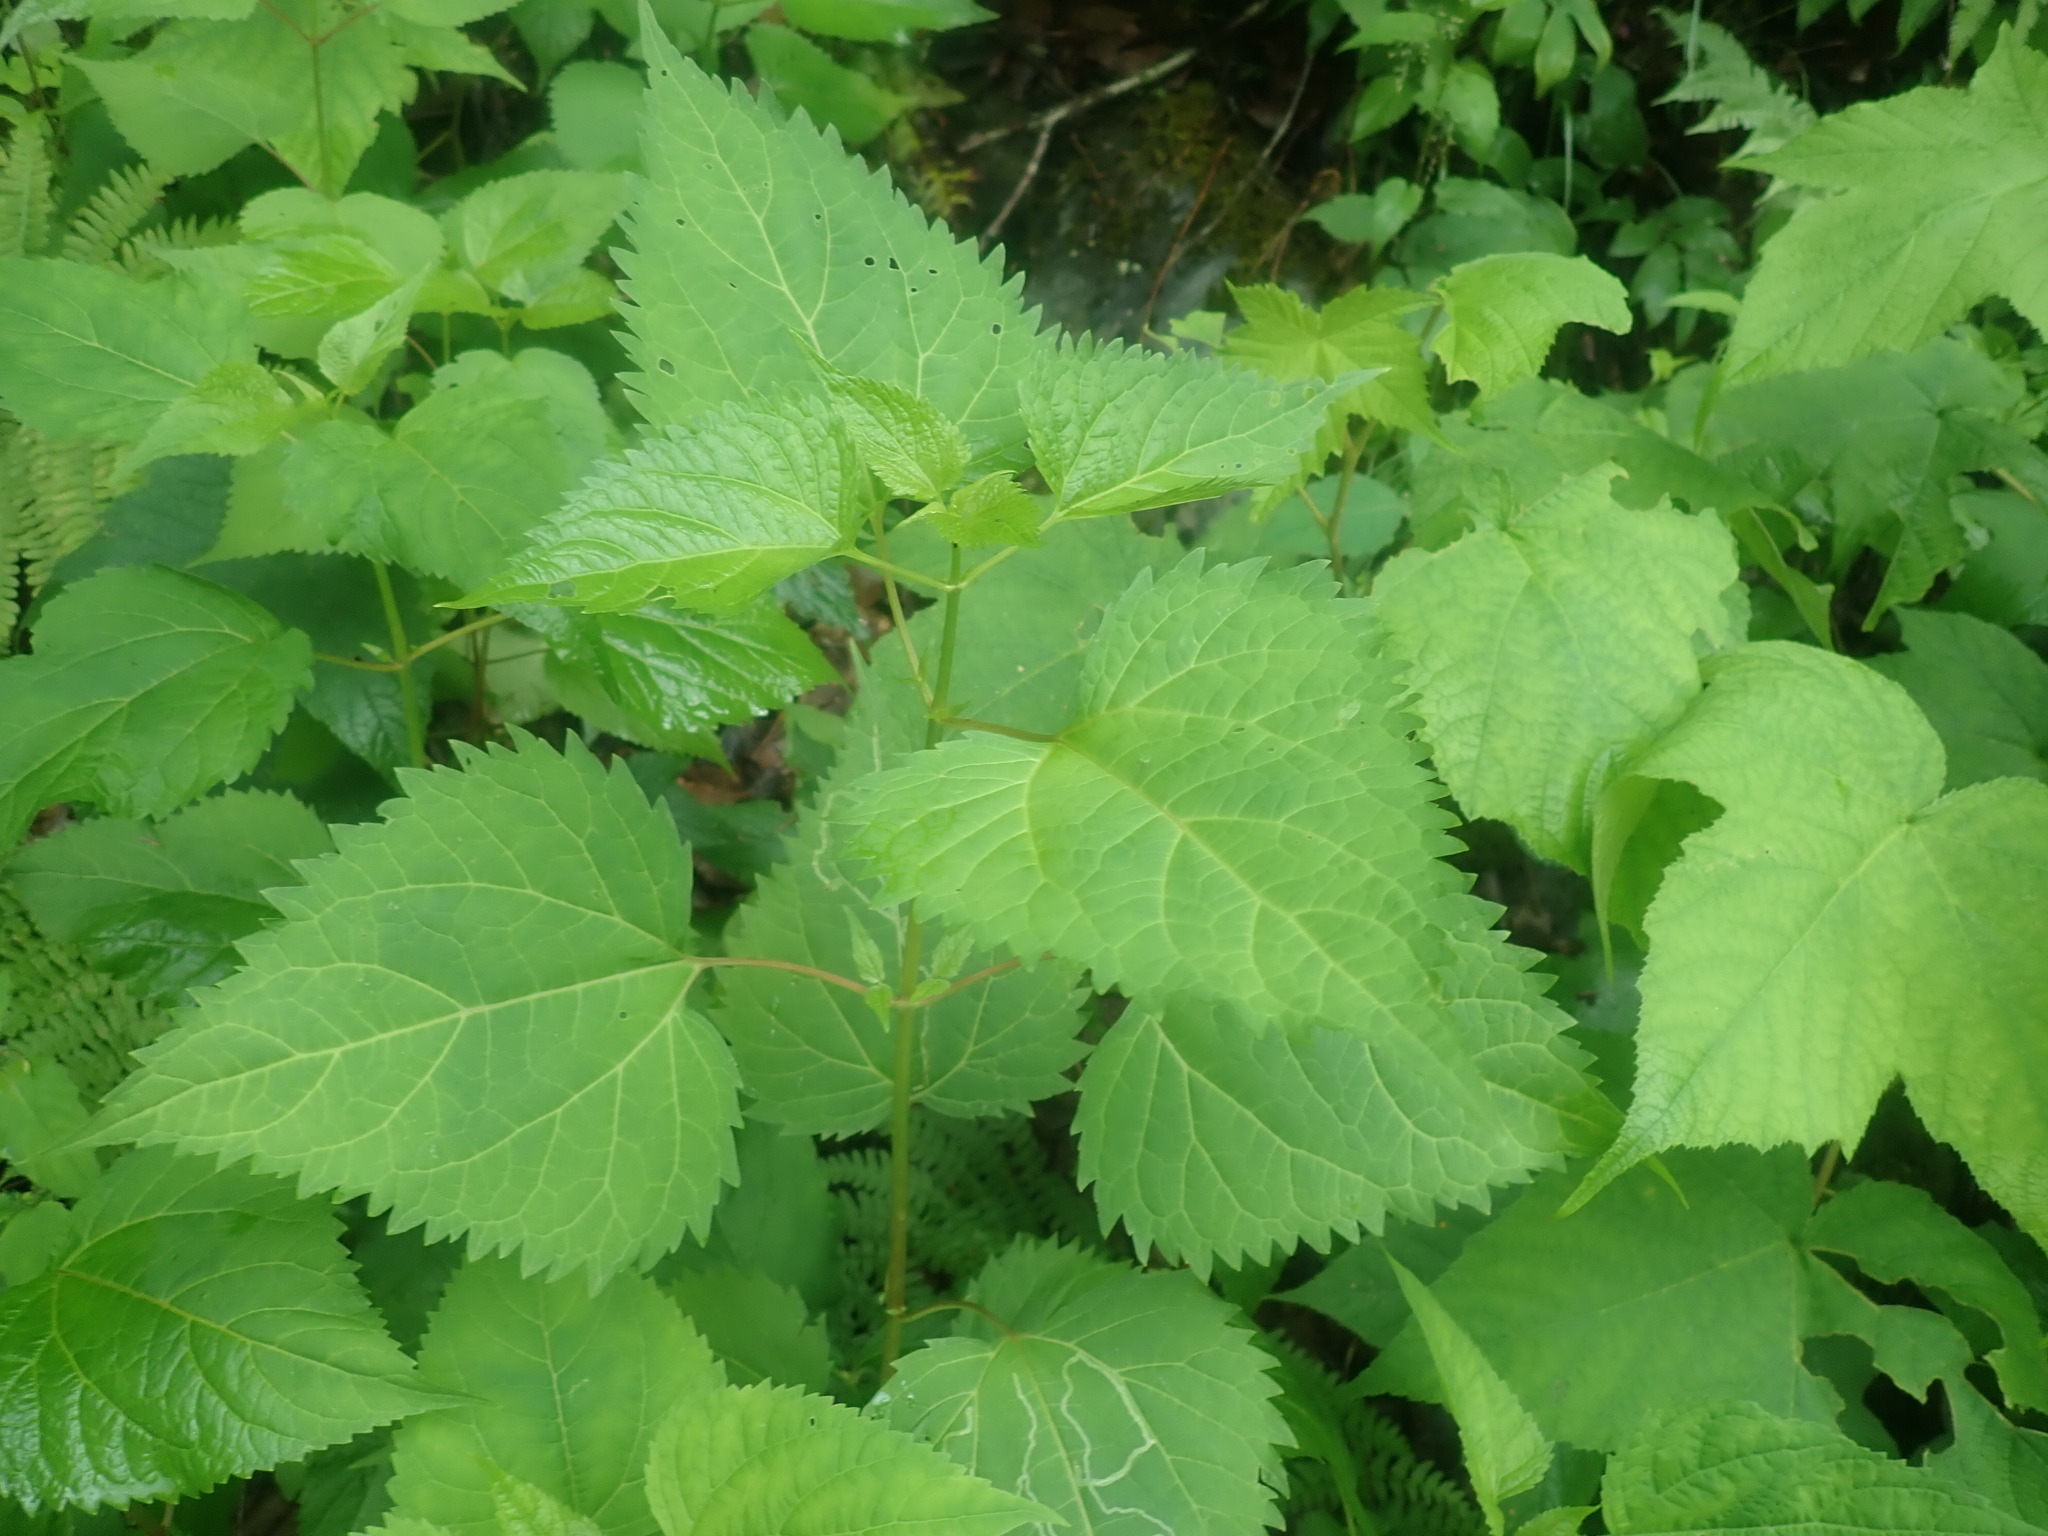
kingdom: Plantae
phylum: Tracheophyta
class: Magnoliopsida
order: Asterales
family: Asteraceae
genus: Ageratina
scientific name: Ageratina altissima
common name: White snakeroot
